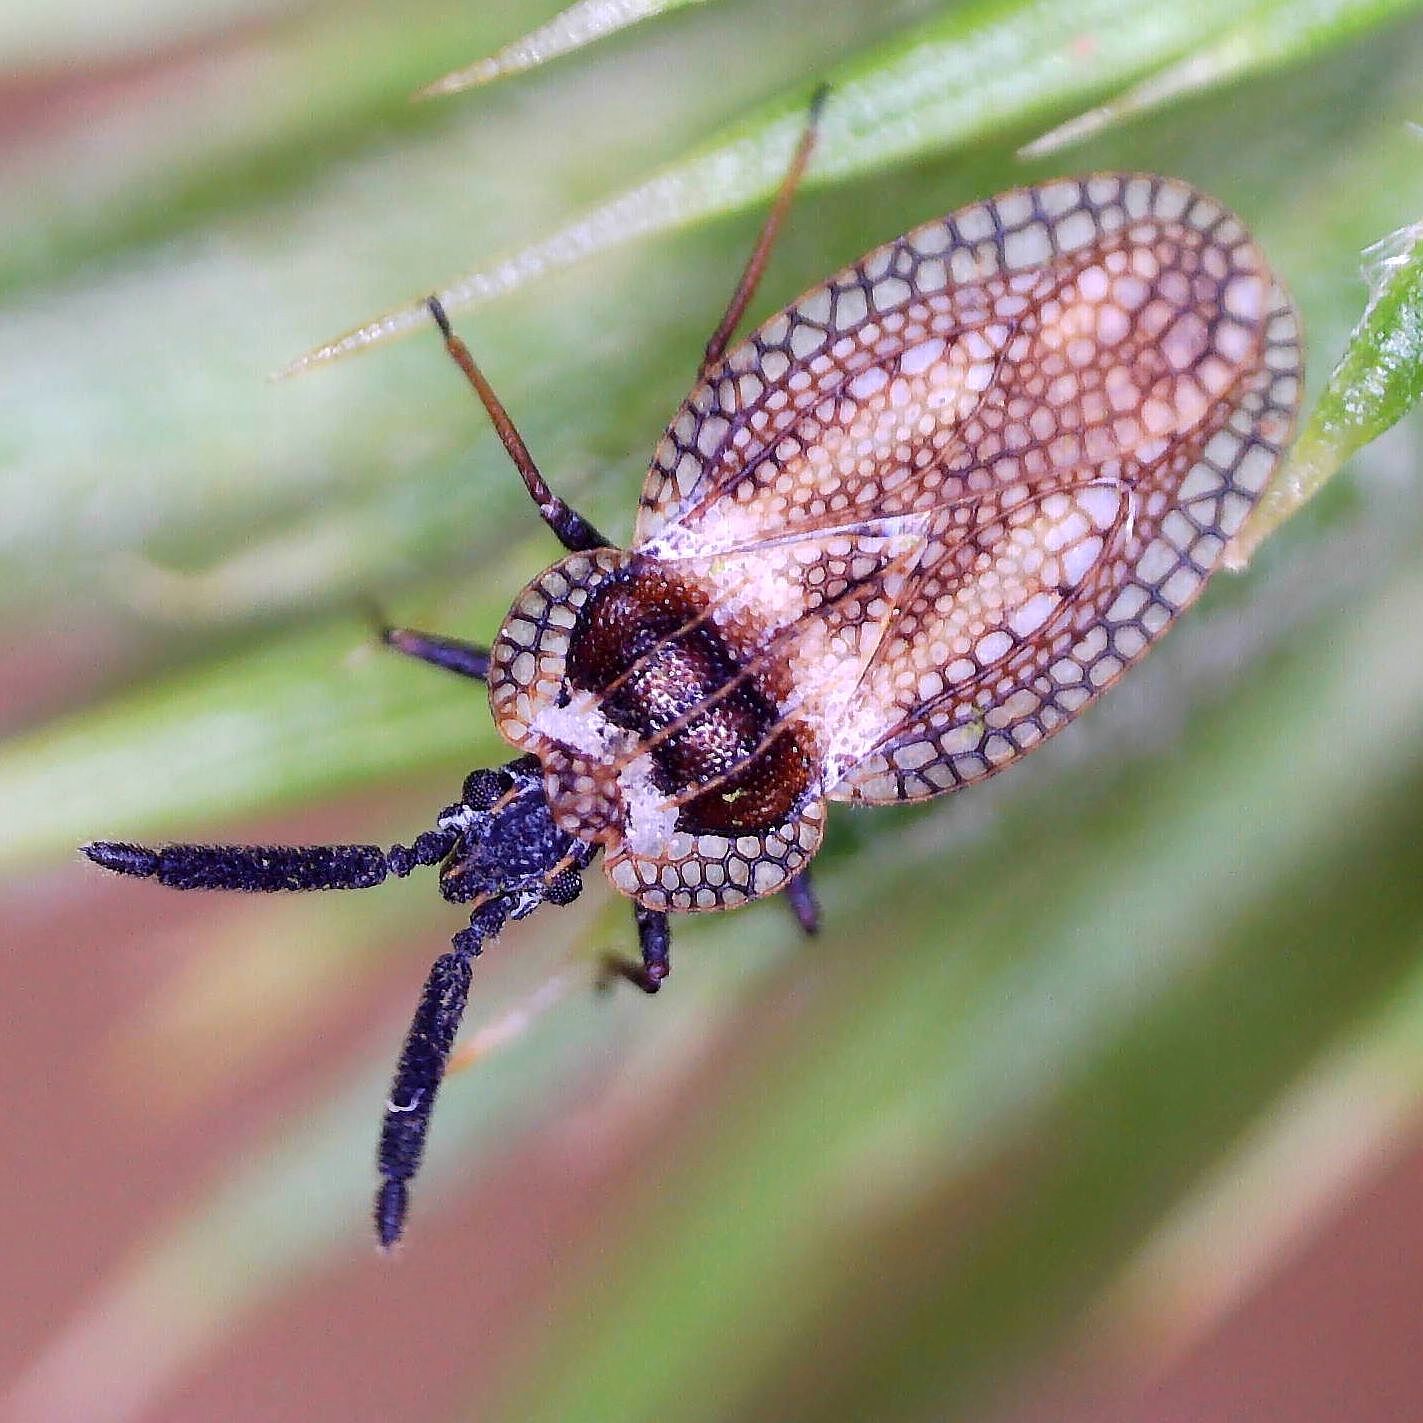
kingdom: Animalia
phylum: Arthropoda
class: Insecta
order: Hemiptera
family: Tingidae
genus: Dictyonota
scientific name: Dictyonota strichnocera
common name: Gorse lacebug
